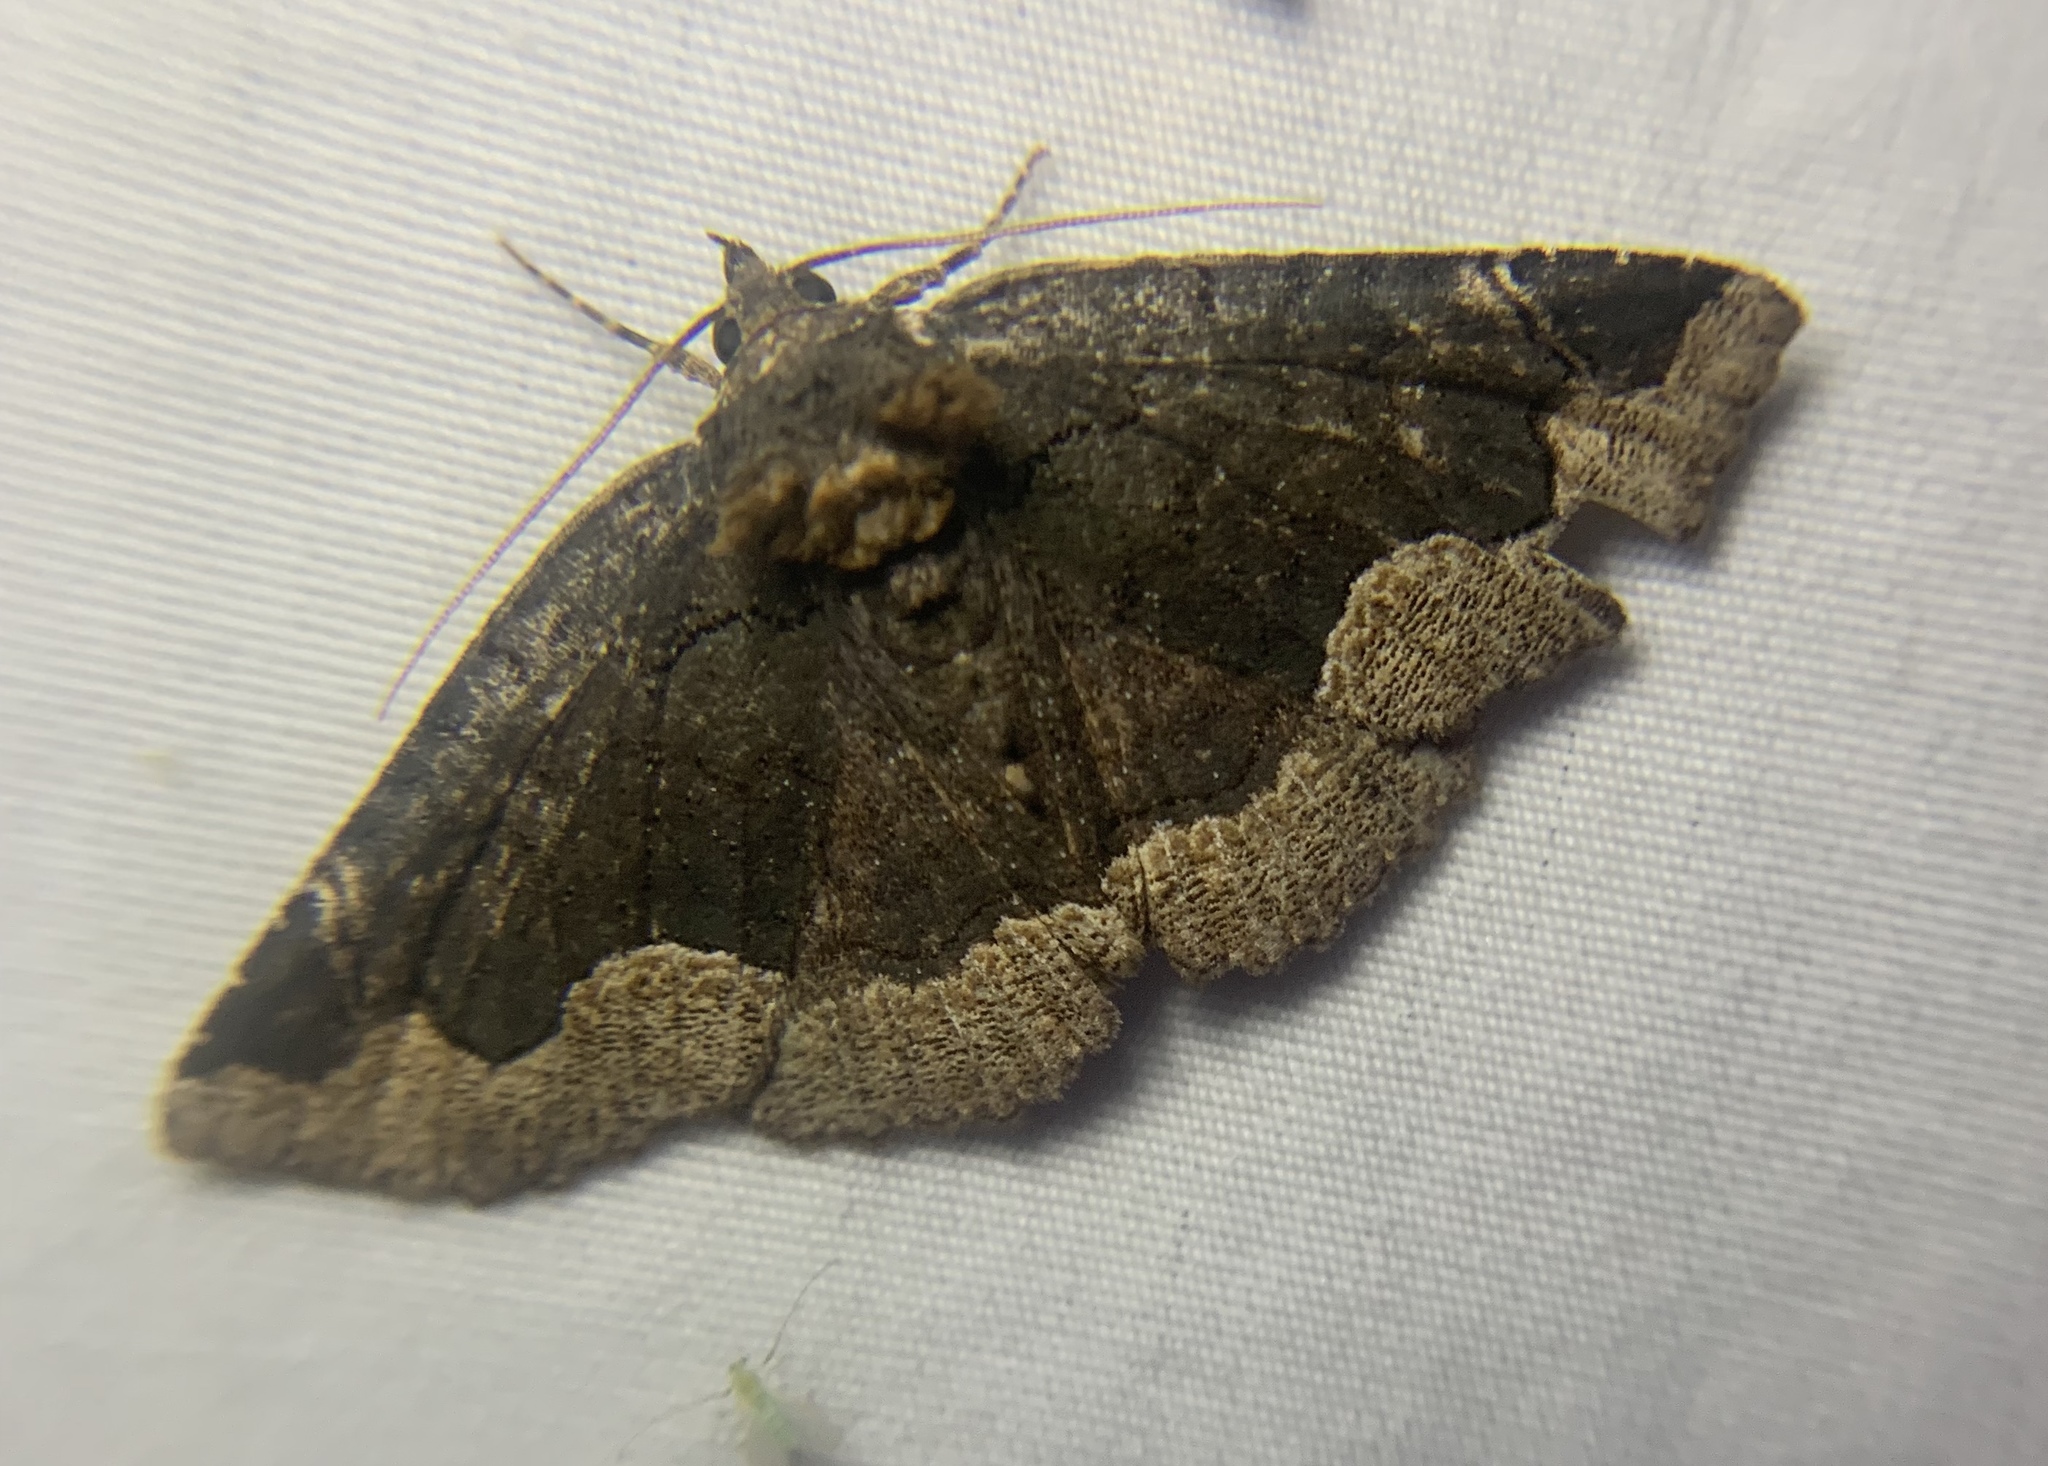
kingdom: Animalia
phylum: Arthropoda
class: Insecta
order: Lepidoptera
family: Erebidae
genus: Zale
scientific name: Zale horrida
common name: Horrid zale moth
